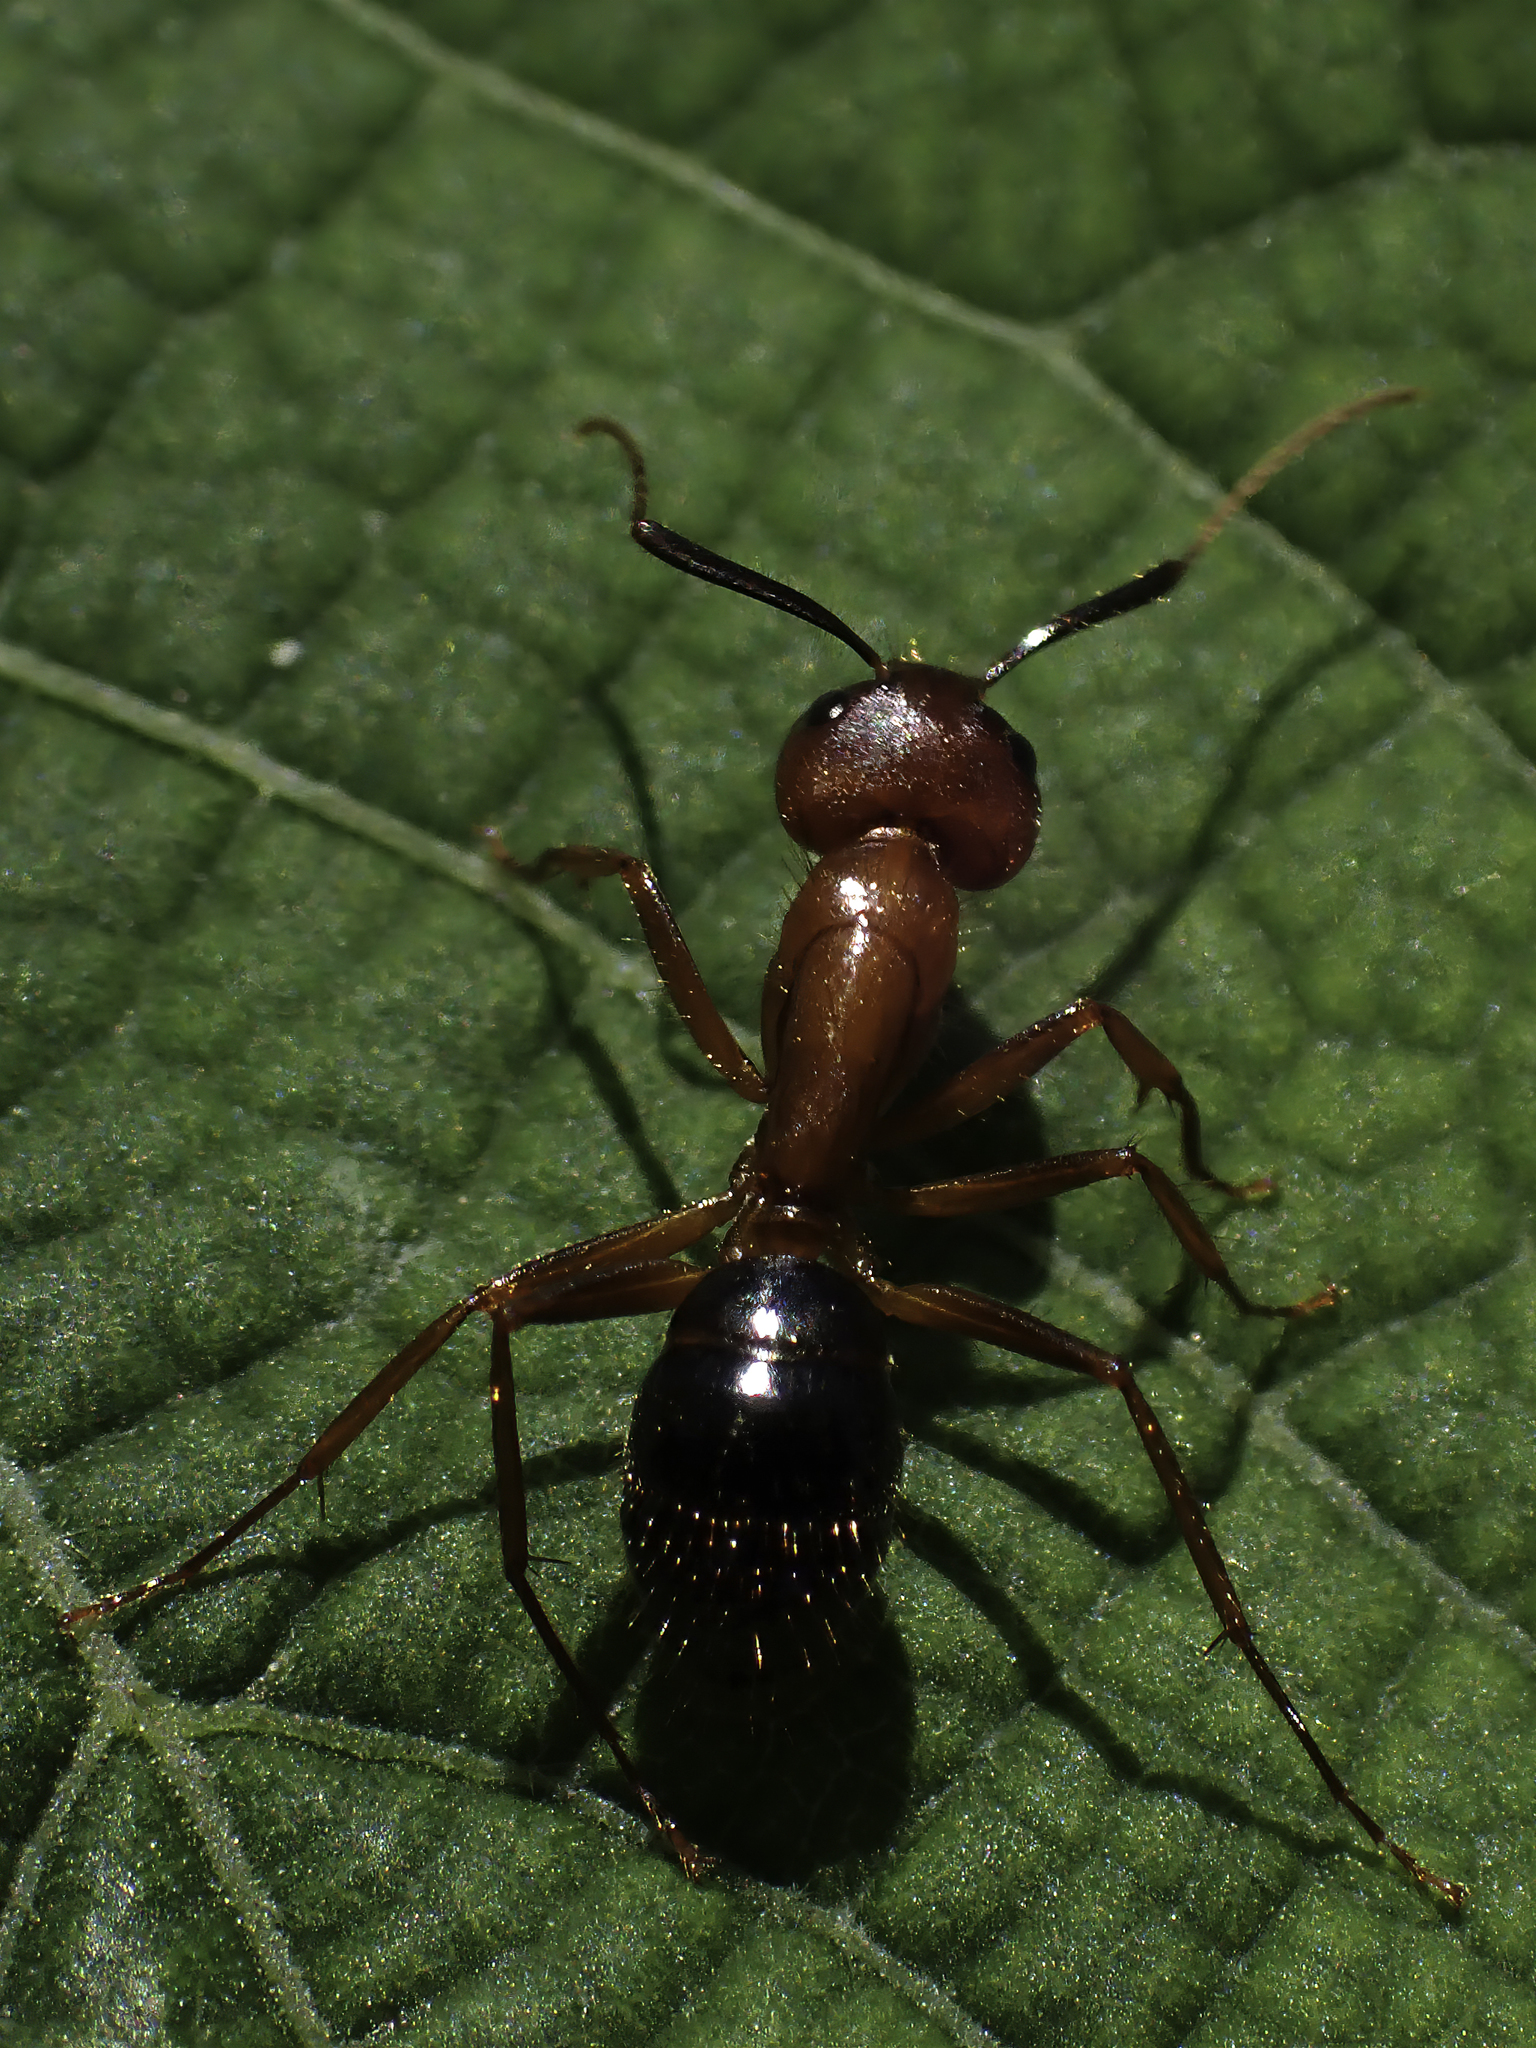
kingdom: Animalia
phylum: Arthropoda
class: Insecta
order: Hymenoptera
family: Formicidae
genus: Camponotus
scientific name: Camponotus floridanus
